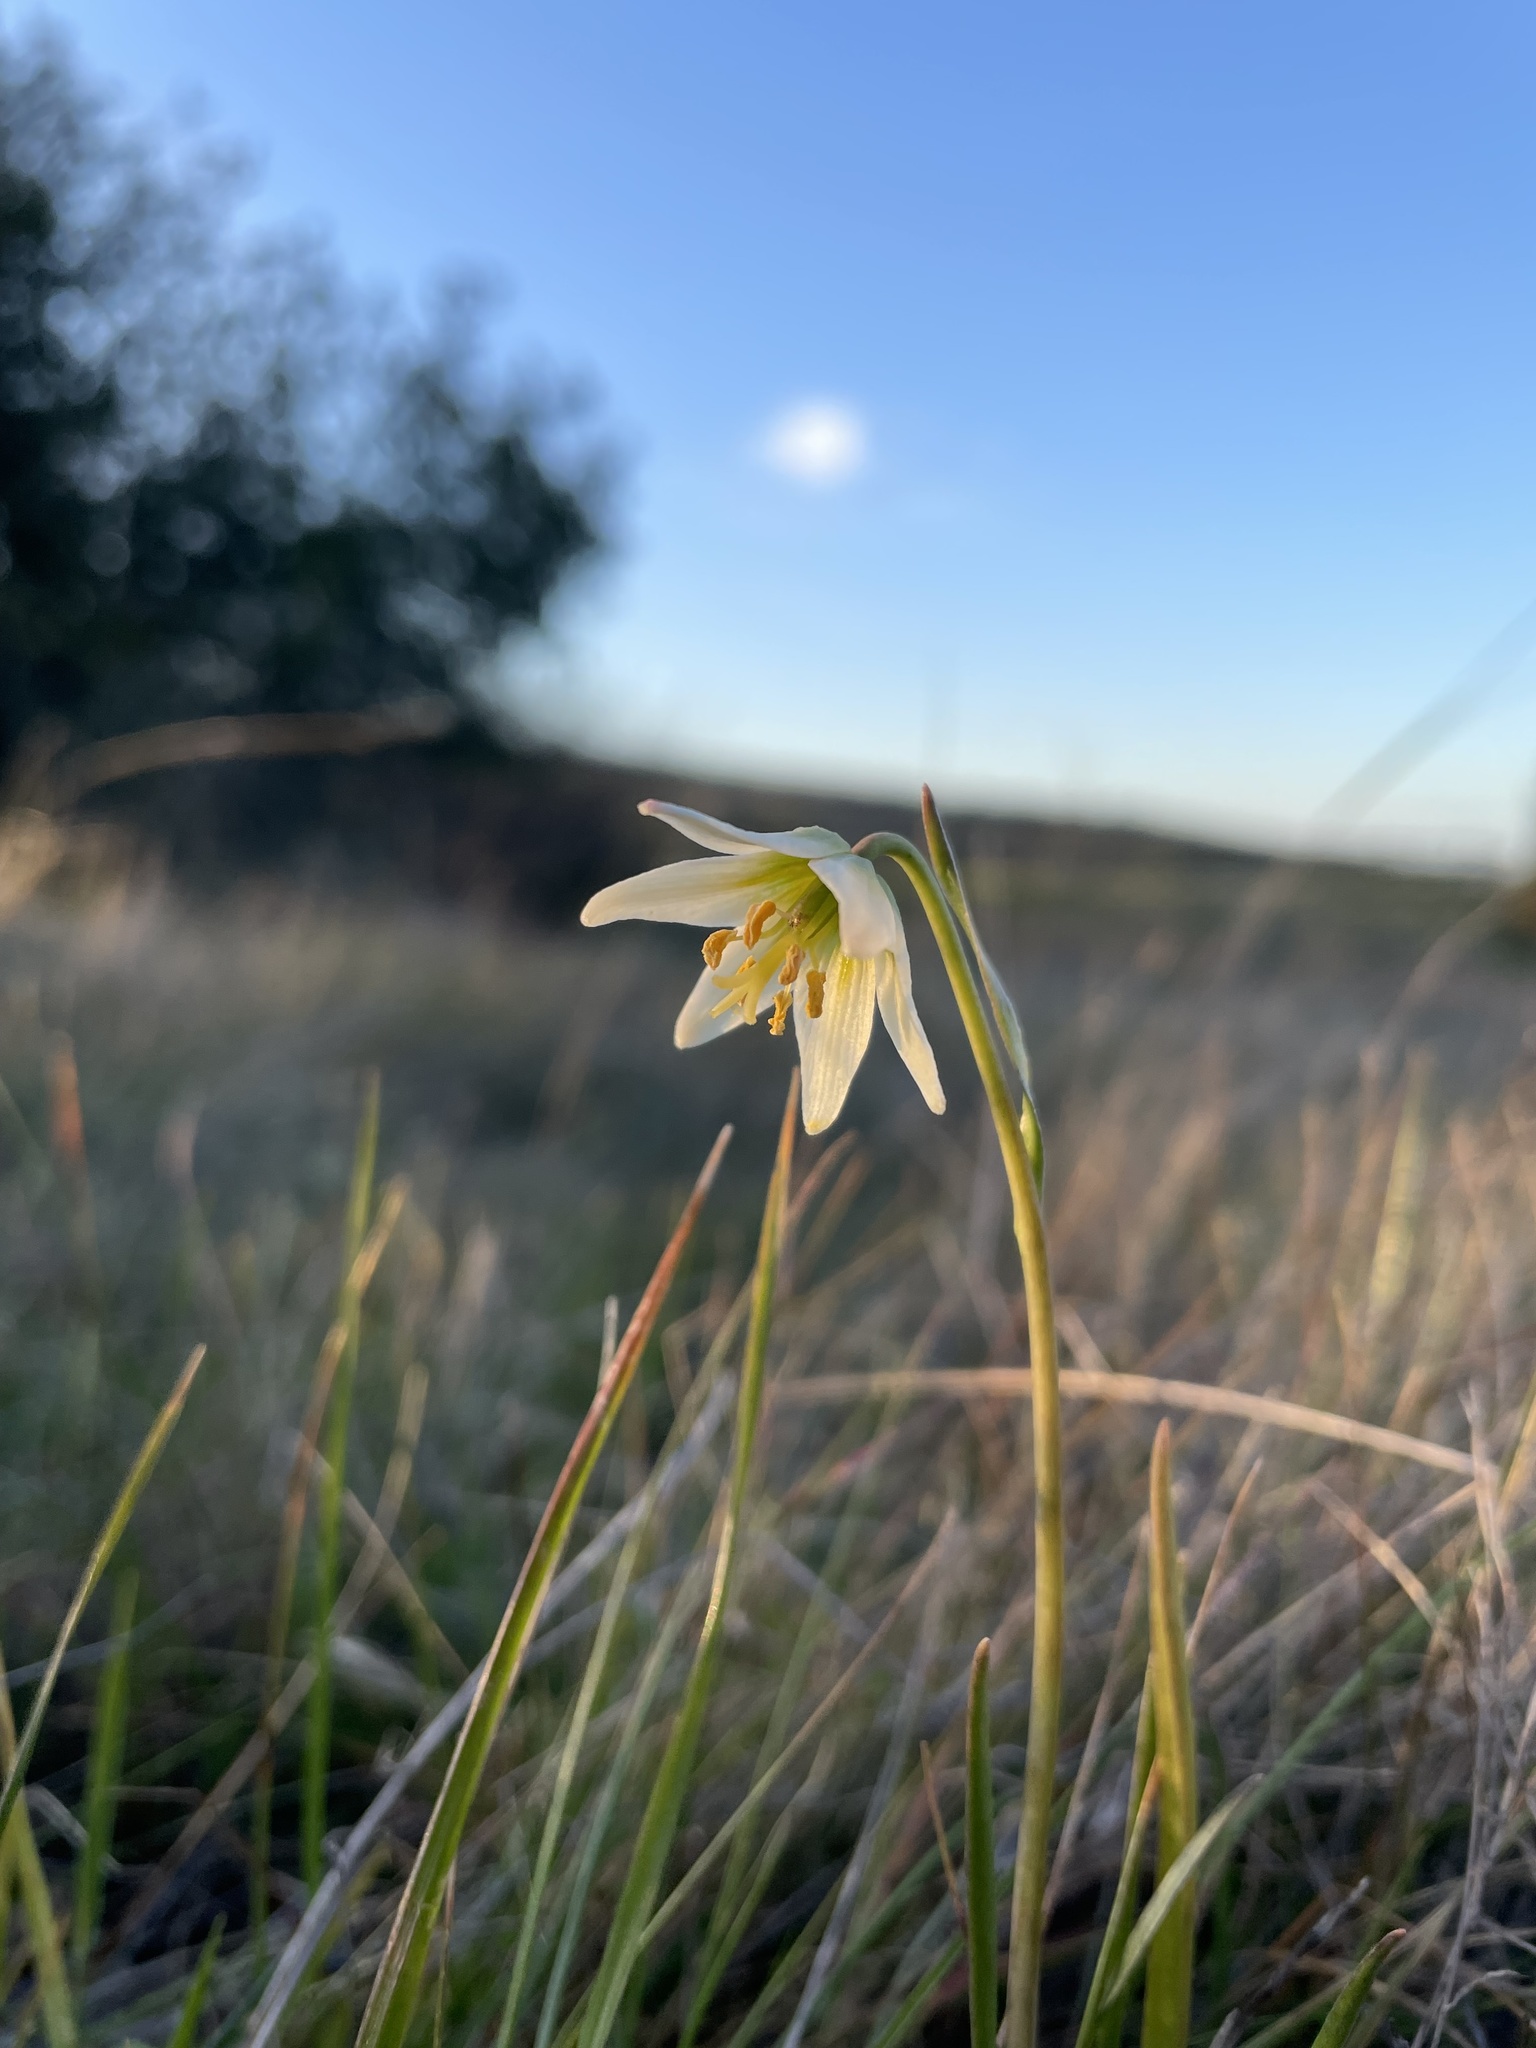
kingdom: Plantae
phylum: Tracheophyta
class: Liliopsida
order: Liliales
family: Liliaceae
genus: Fritillaria
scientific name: Fritillaria liliacea
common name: Fragrant fritillary
